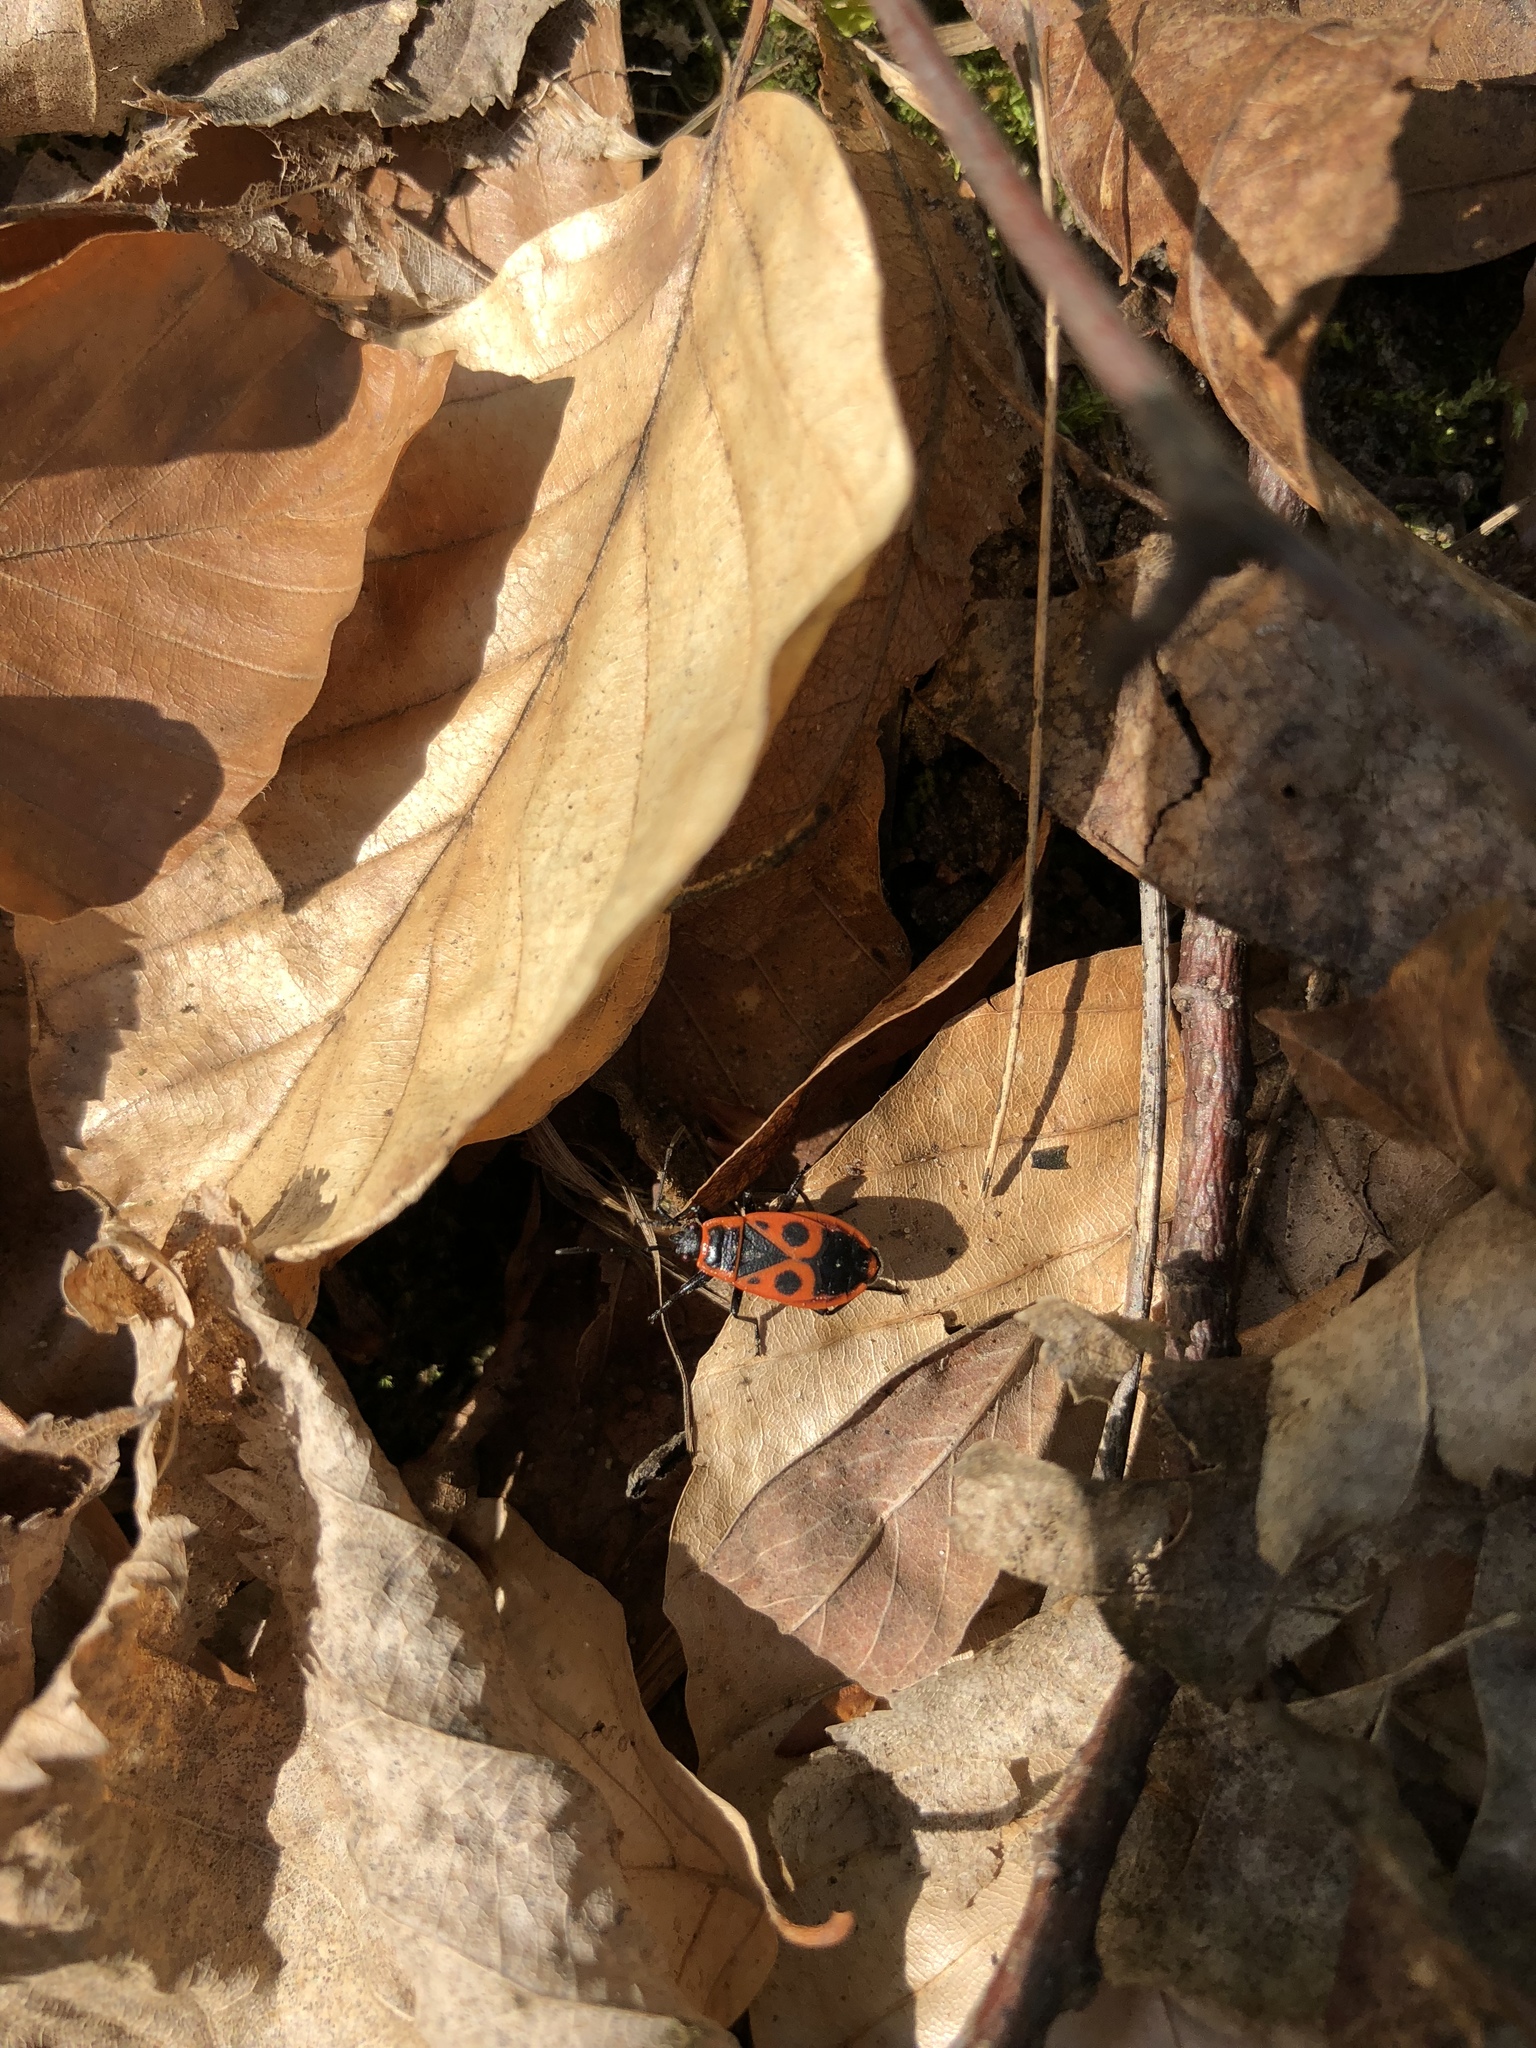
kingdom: Animalia
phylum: Arthropoda
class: Insecta
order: Hemiptera
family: Pyrrhocoridae
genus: Pyrrhocoris
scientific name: Pyrrhocoris apterus
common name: Firebug
